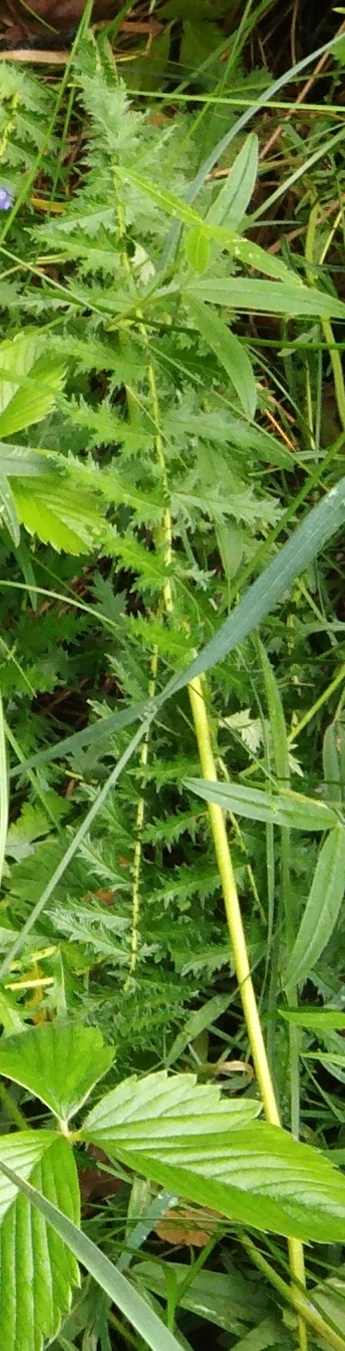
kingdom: Plantae
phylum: Tracheophyta
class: Magnoliopsida
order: Rosales
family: Rosaceae
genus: Filipendula
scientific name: Filipendula vulgaris
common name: Dropwort
